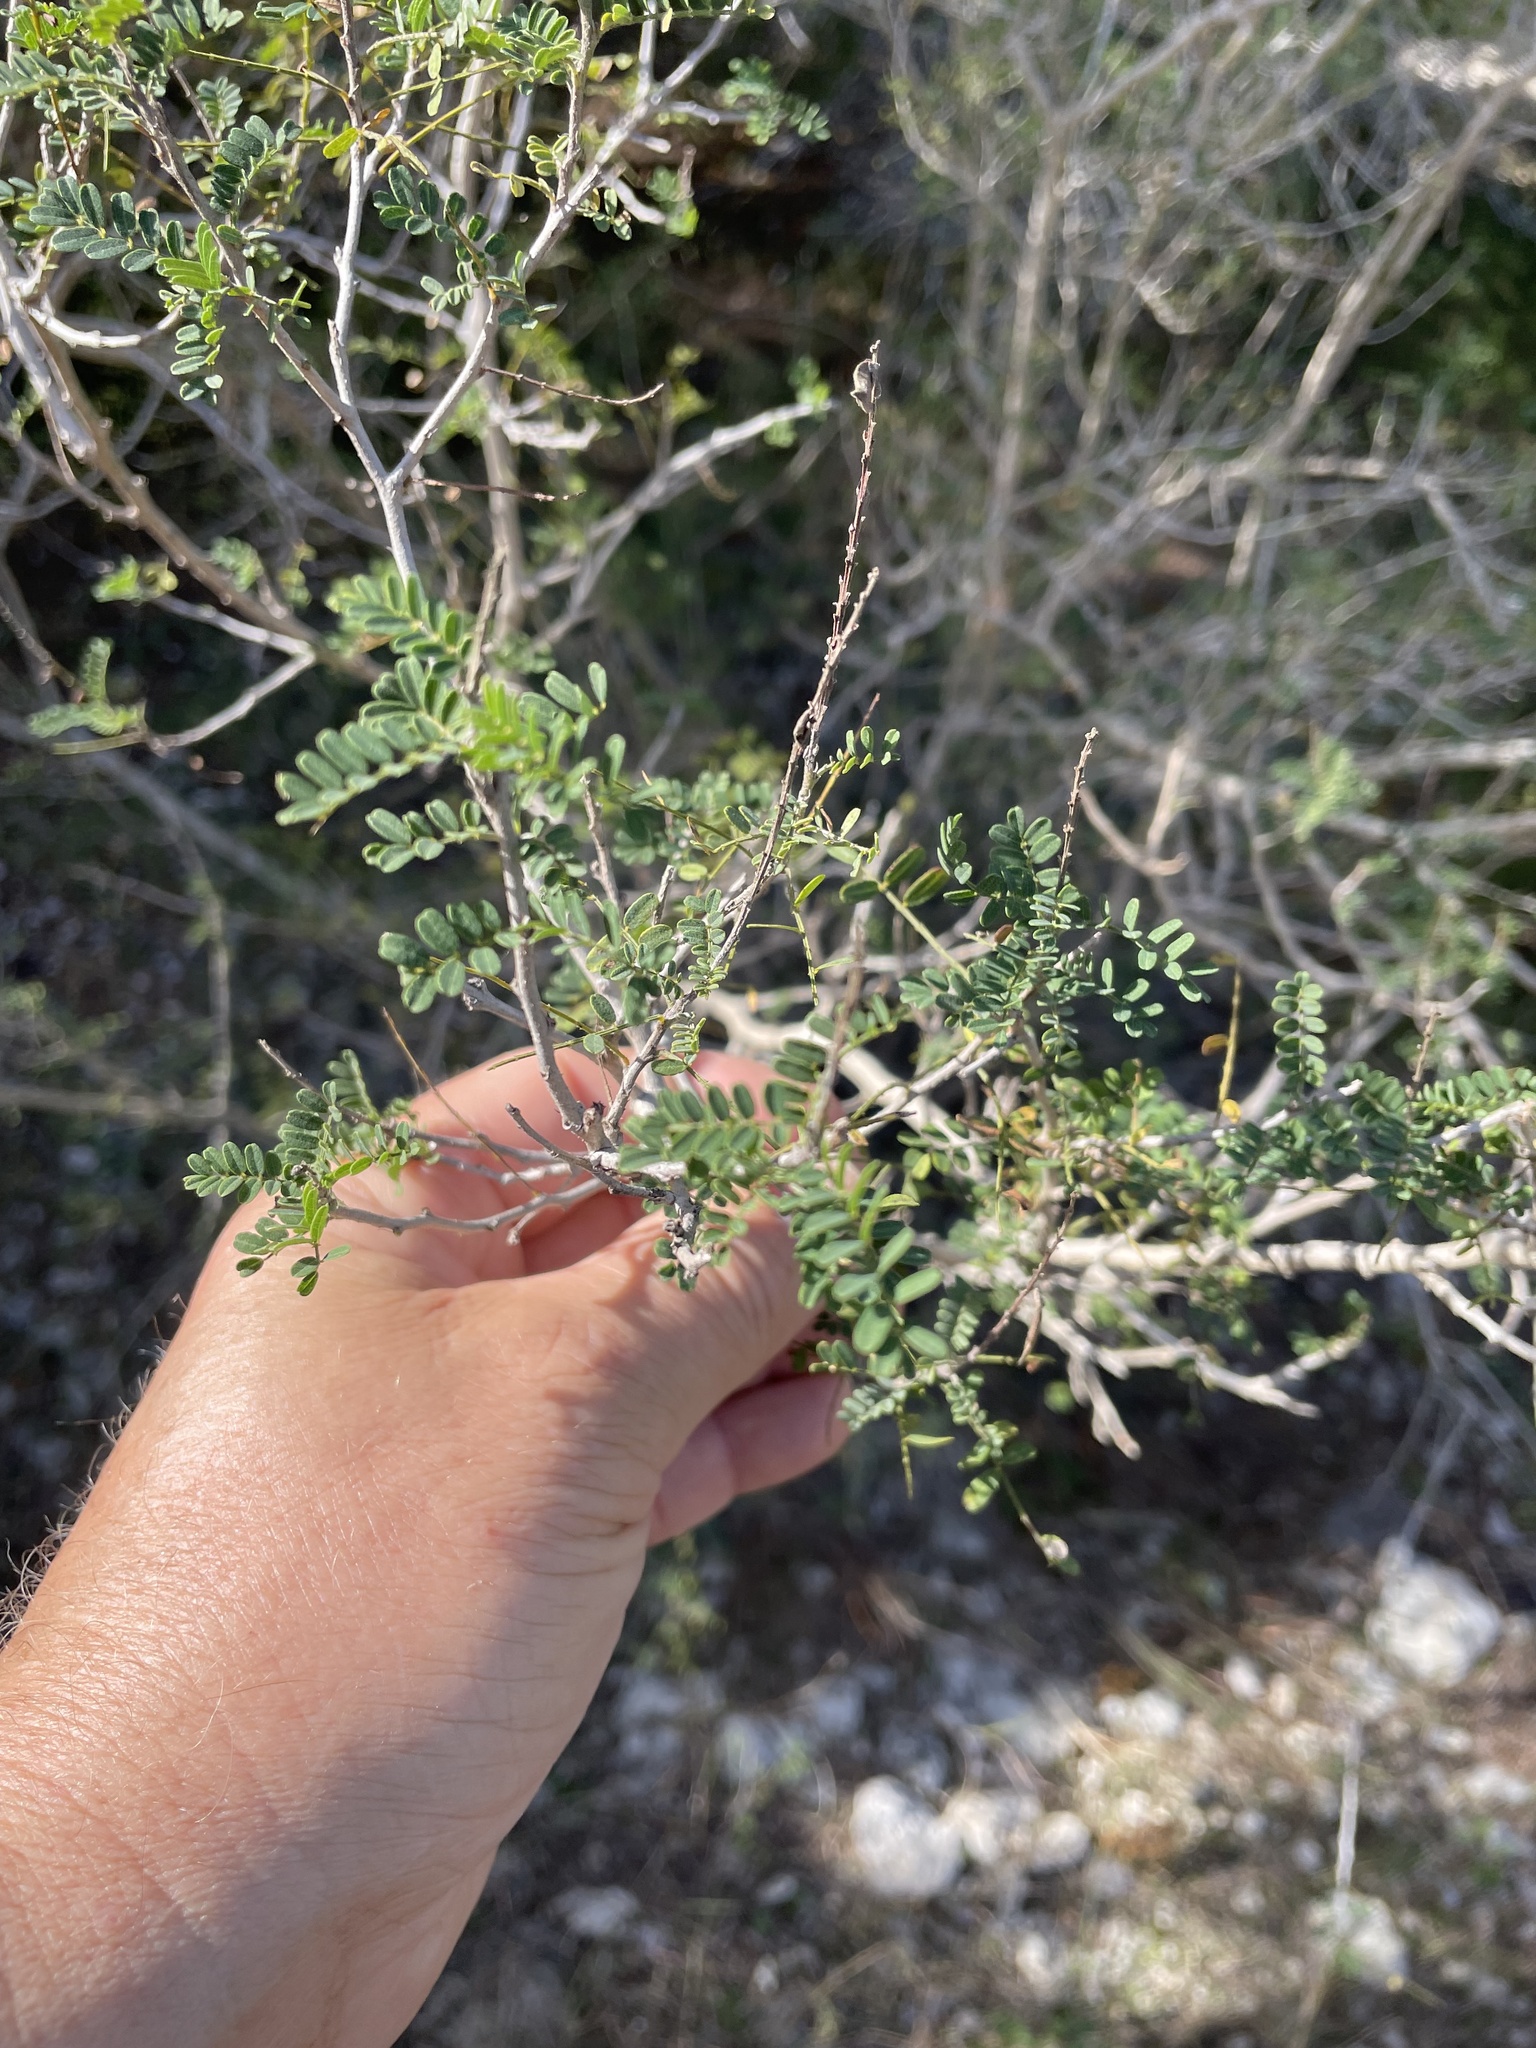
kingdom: Plantae
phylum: Tracheophyta
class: Magnoliopsida
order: Fabales
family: Fabaceae
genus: Eysenhardtia
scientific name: Eysenhardtia texana
